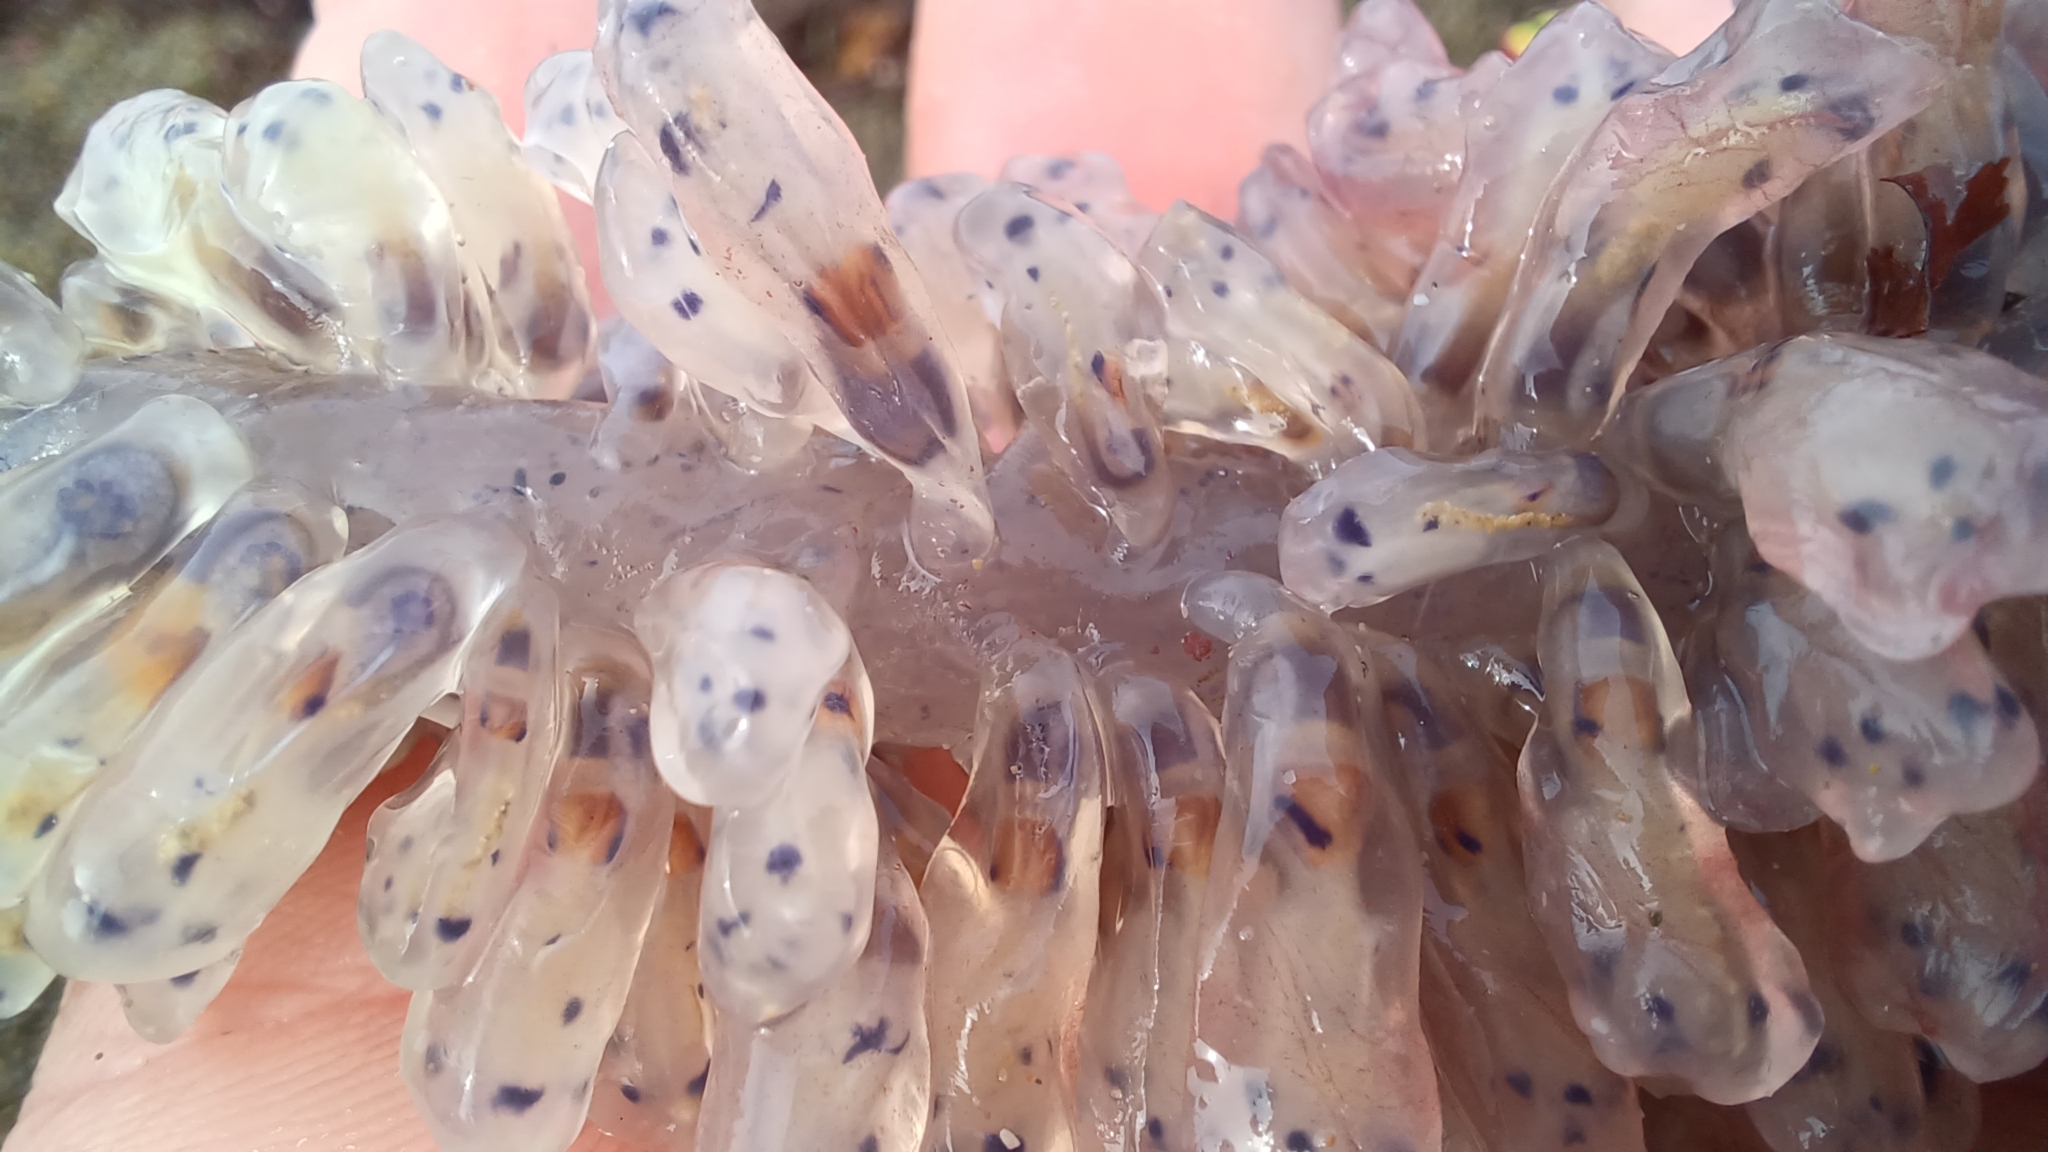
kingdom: Animalia
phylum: Chordata
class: Ascidiacea
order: Aplousobranchia
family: Clavelinidae
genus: Clavelina
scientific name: Clavelina moluccensis
